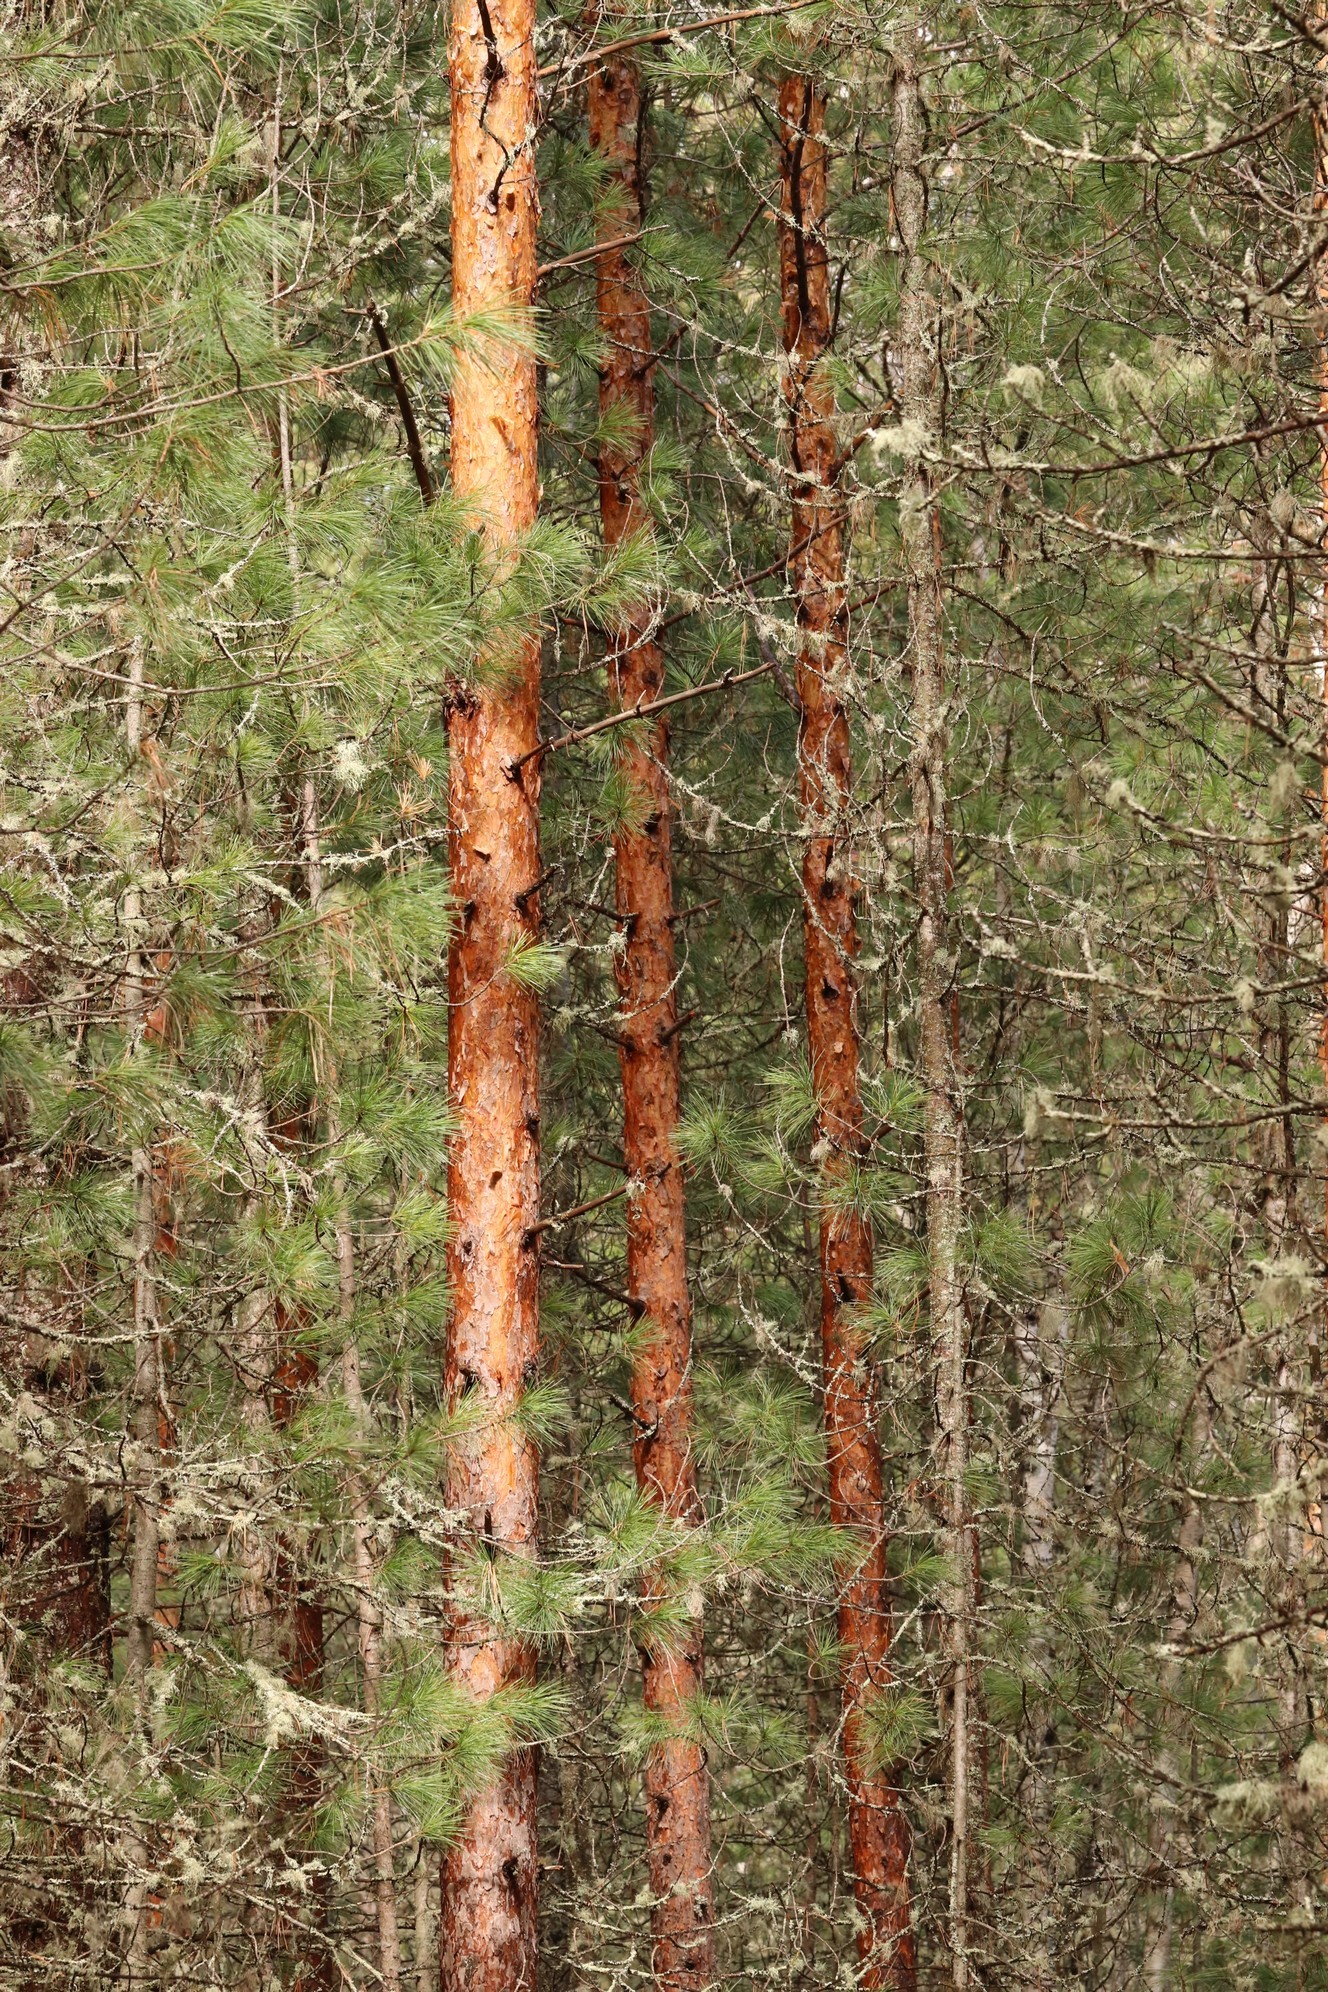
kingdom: Plantae
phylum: Tracheophyta
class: Pinopsida
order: Pinales
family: Pinaceae
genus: Pinus
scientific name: Pinus sylvestris
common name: Scots pine
